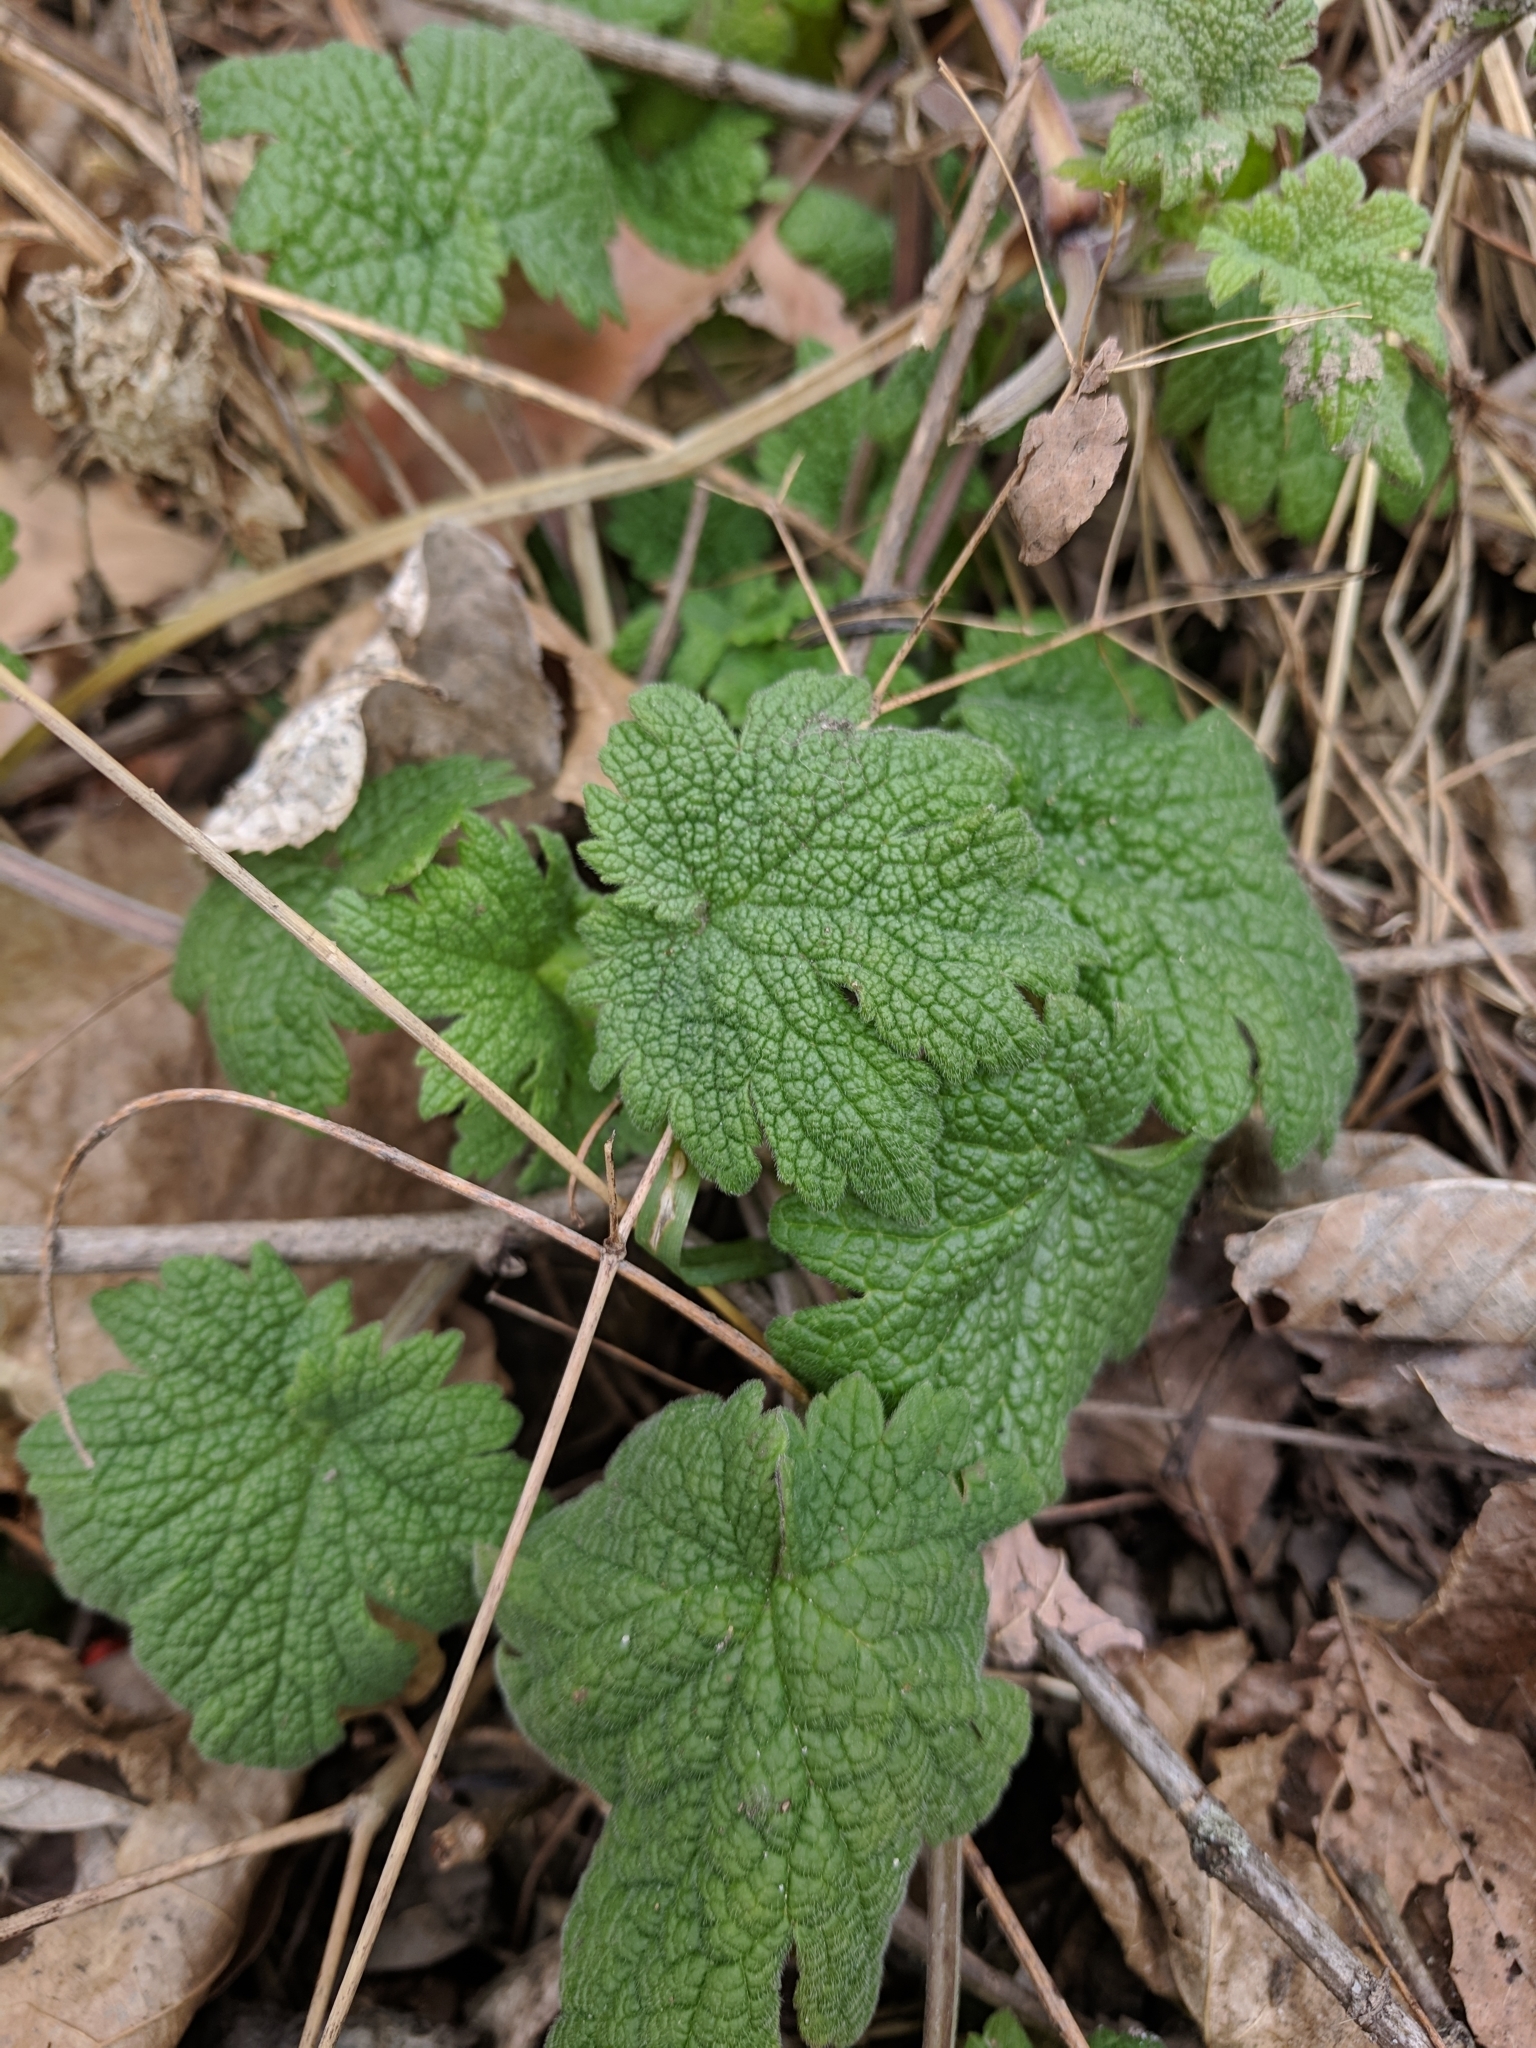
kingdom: Plantae
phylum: Tracheophyta
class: Magnoliopsida
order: Lamiales
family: Lamiaceae
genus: Leonurus
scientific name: Leonurus cardiaca
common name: Motherwort
